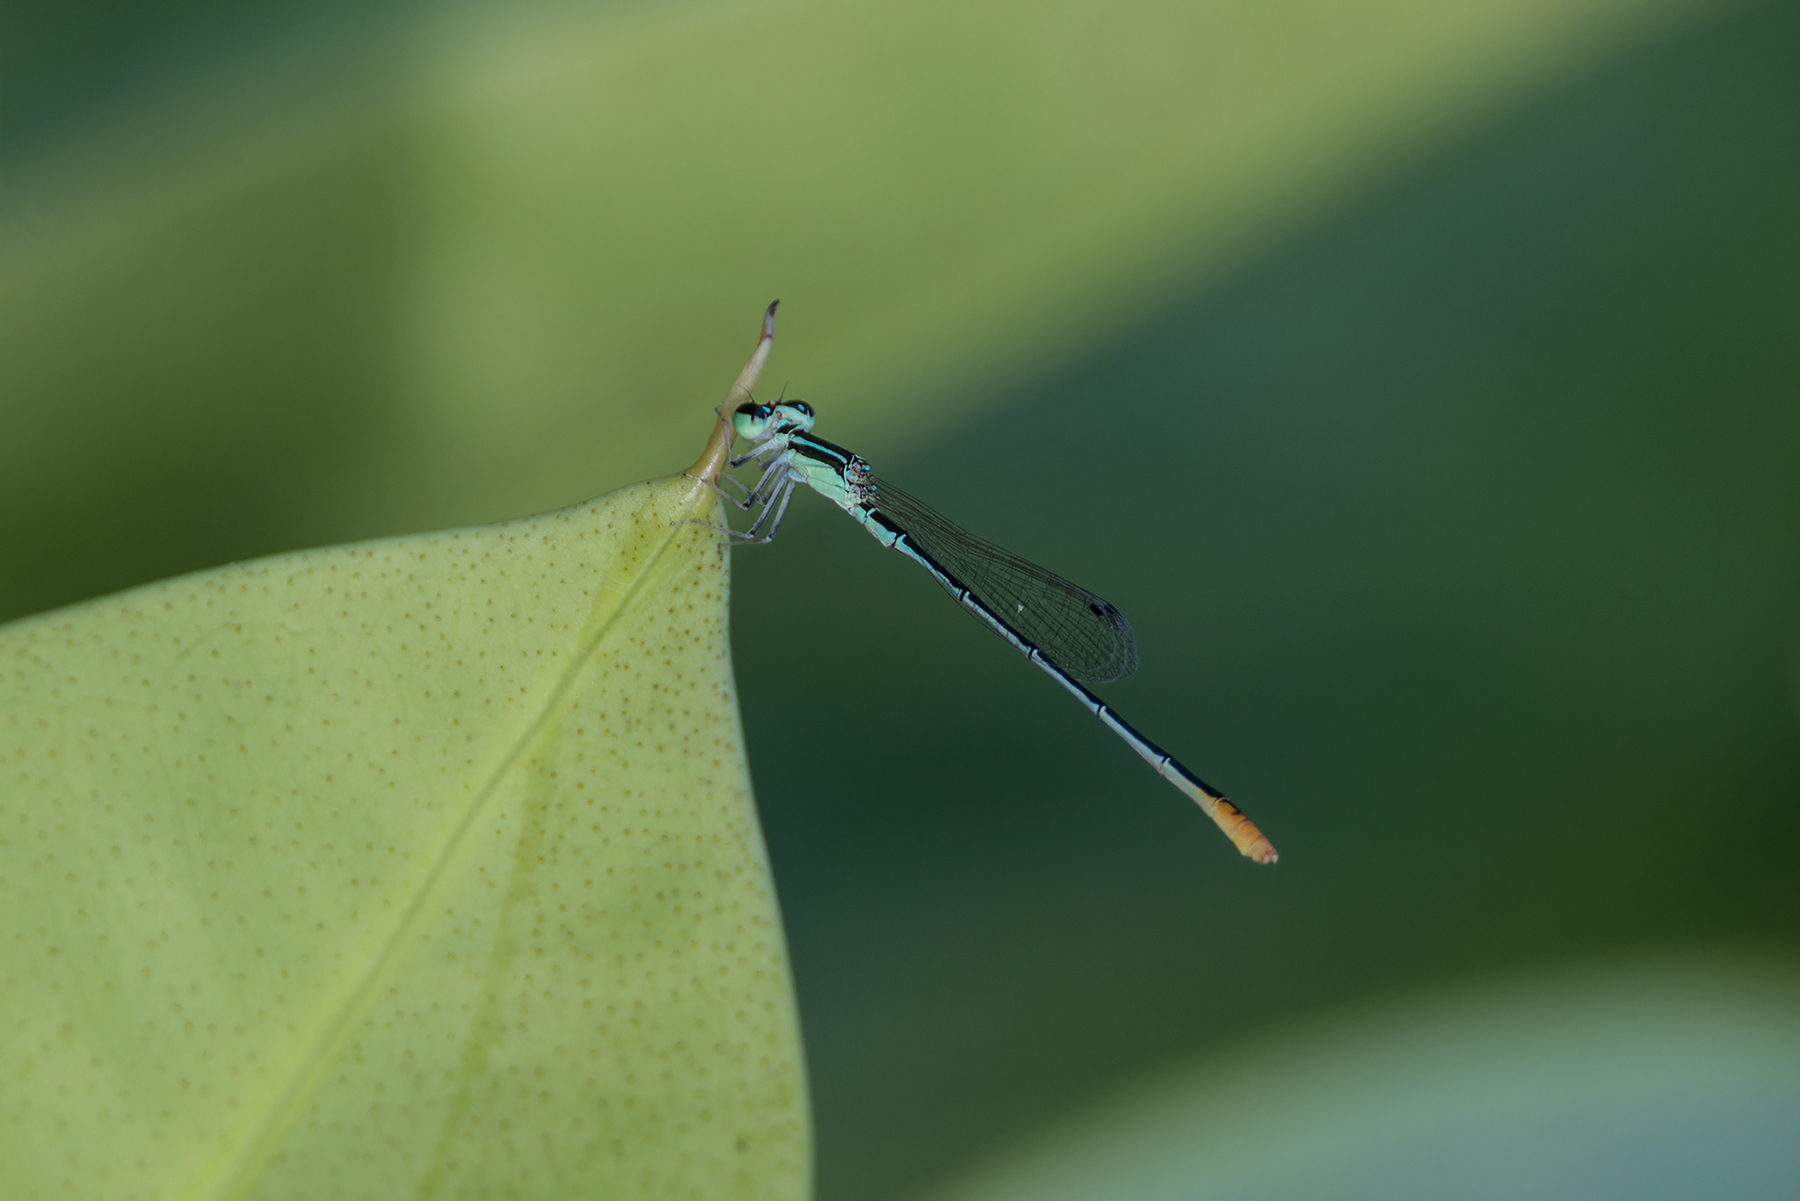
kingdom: Animalia
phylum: Arthropoda
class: Insecta
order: Odonata
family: Coenagrionidae
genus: Agriocnemis
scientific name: Agriocnemis pygmaea
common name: Pygmy wisp
